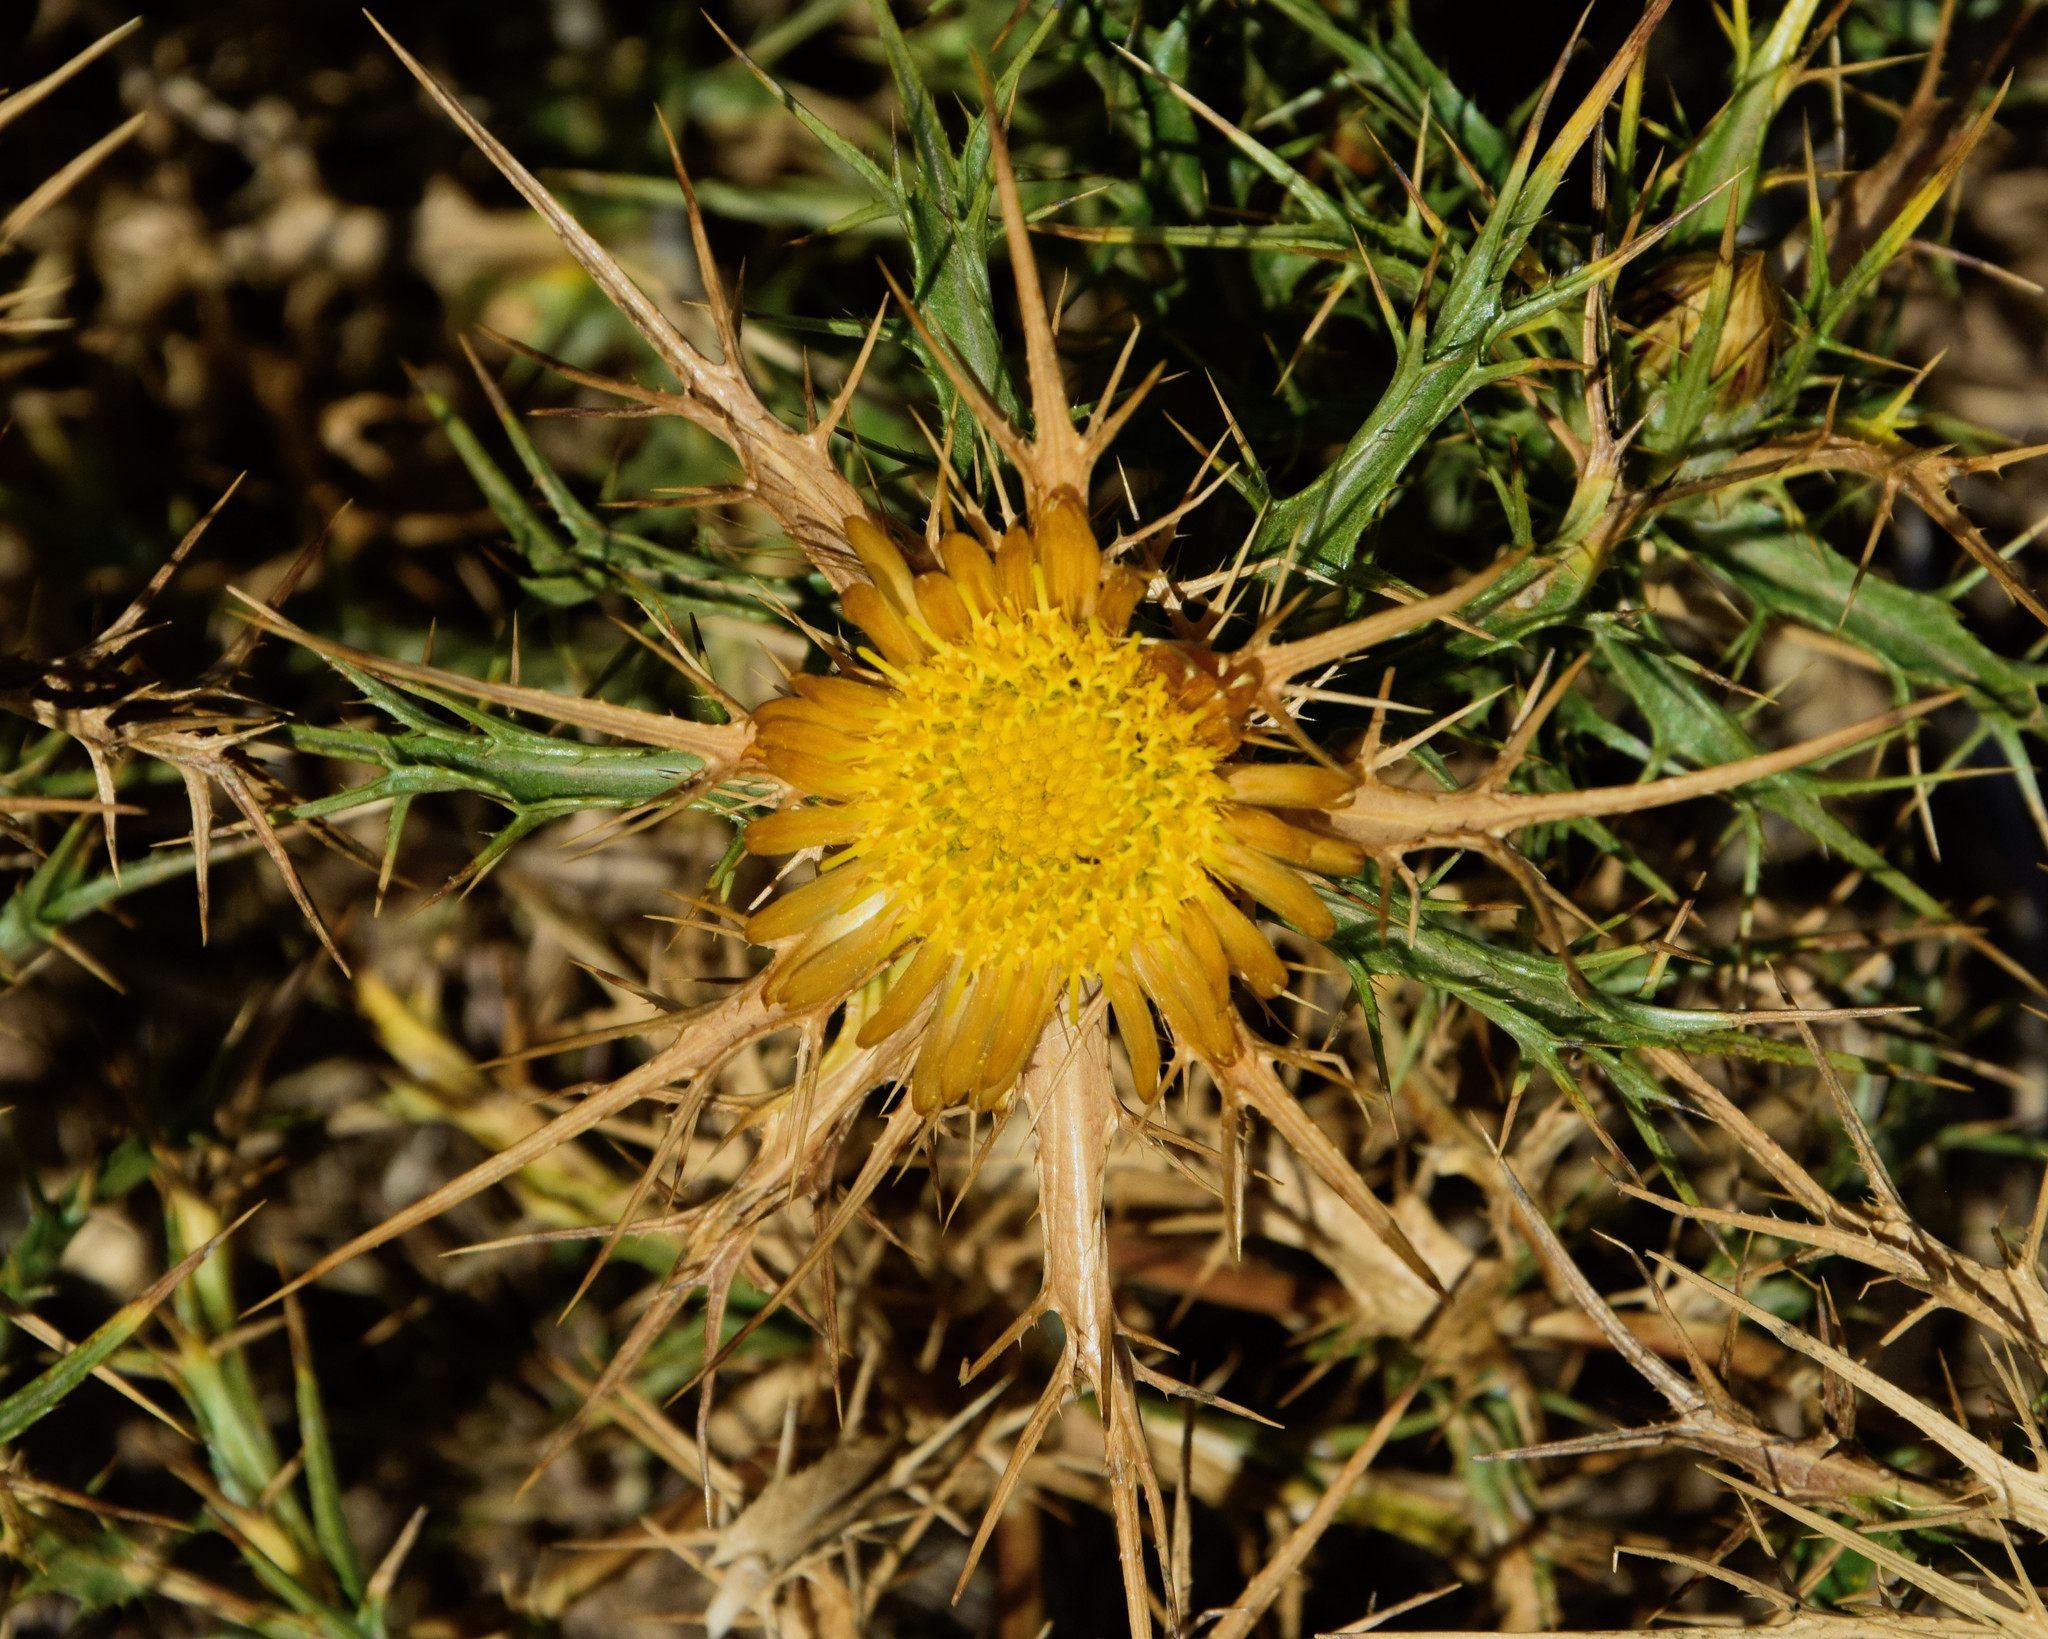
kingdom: Plantae
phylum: Tracheophyta
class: Magnoliopsida
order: Asterales
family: Asteraceae
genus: Carlina
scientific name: Carlina curetum
